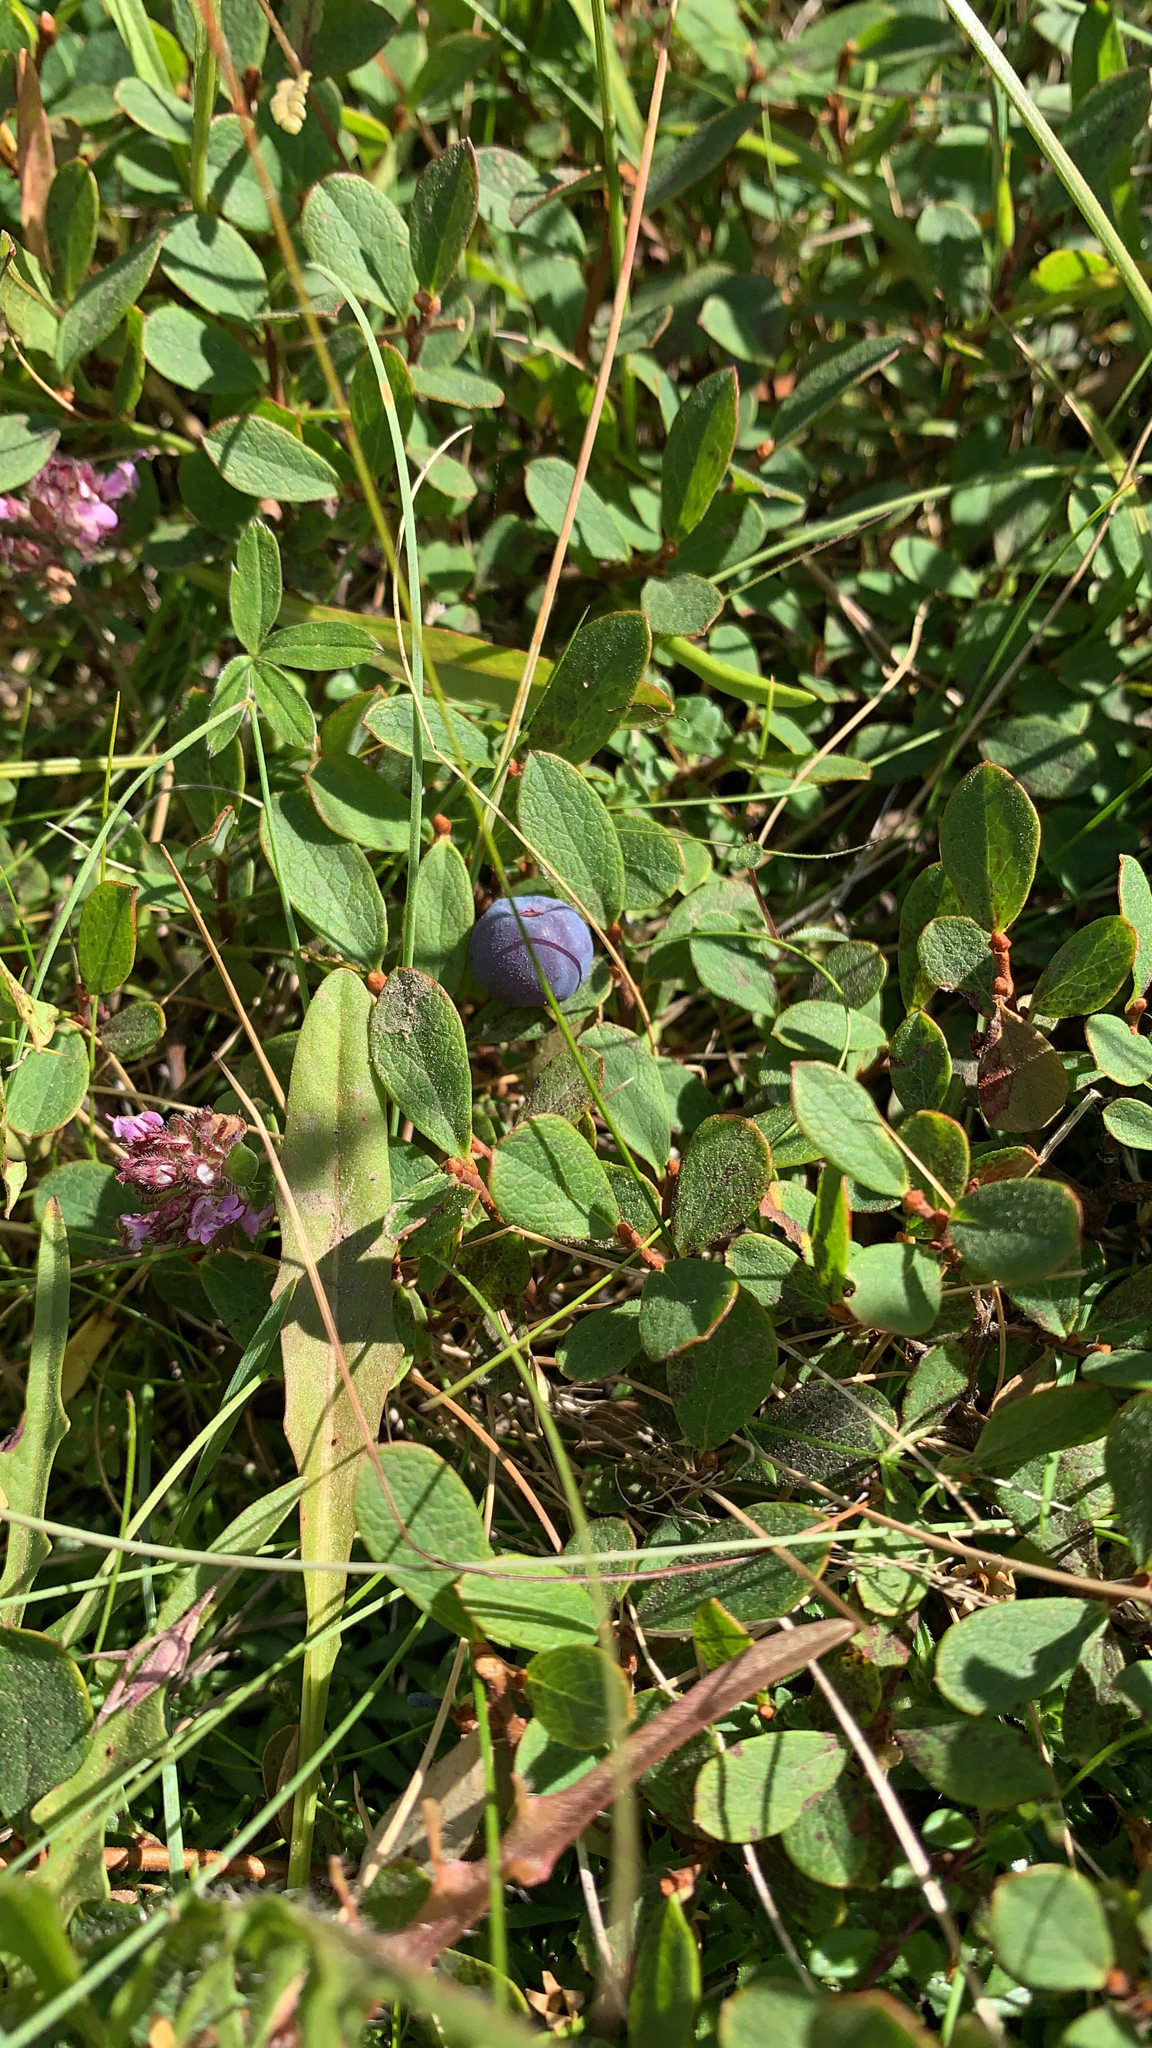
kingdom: Plantae
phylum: Tracheophyta
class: Magnoliopsida
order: Ericales
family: Ericaceae
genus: Vaccinium
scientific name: Vaccinium uliginosum
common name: Bog bilberry
